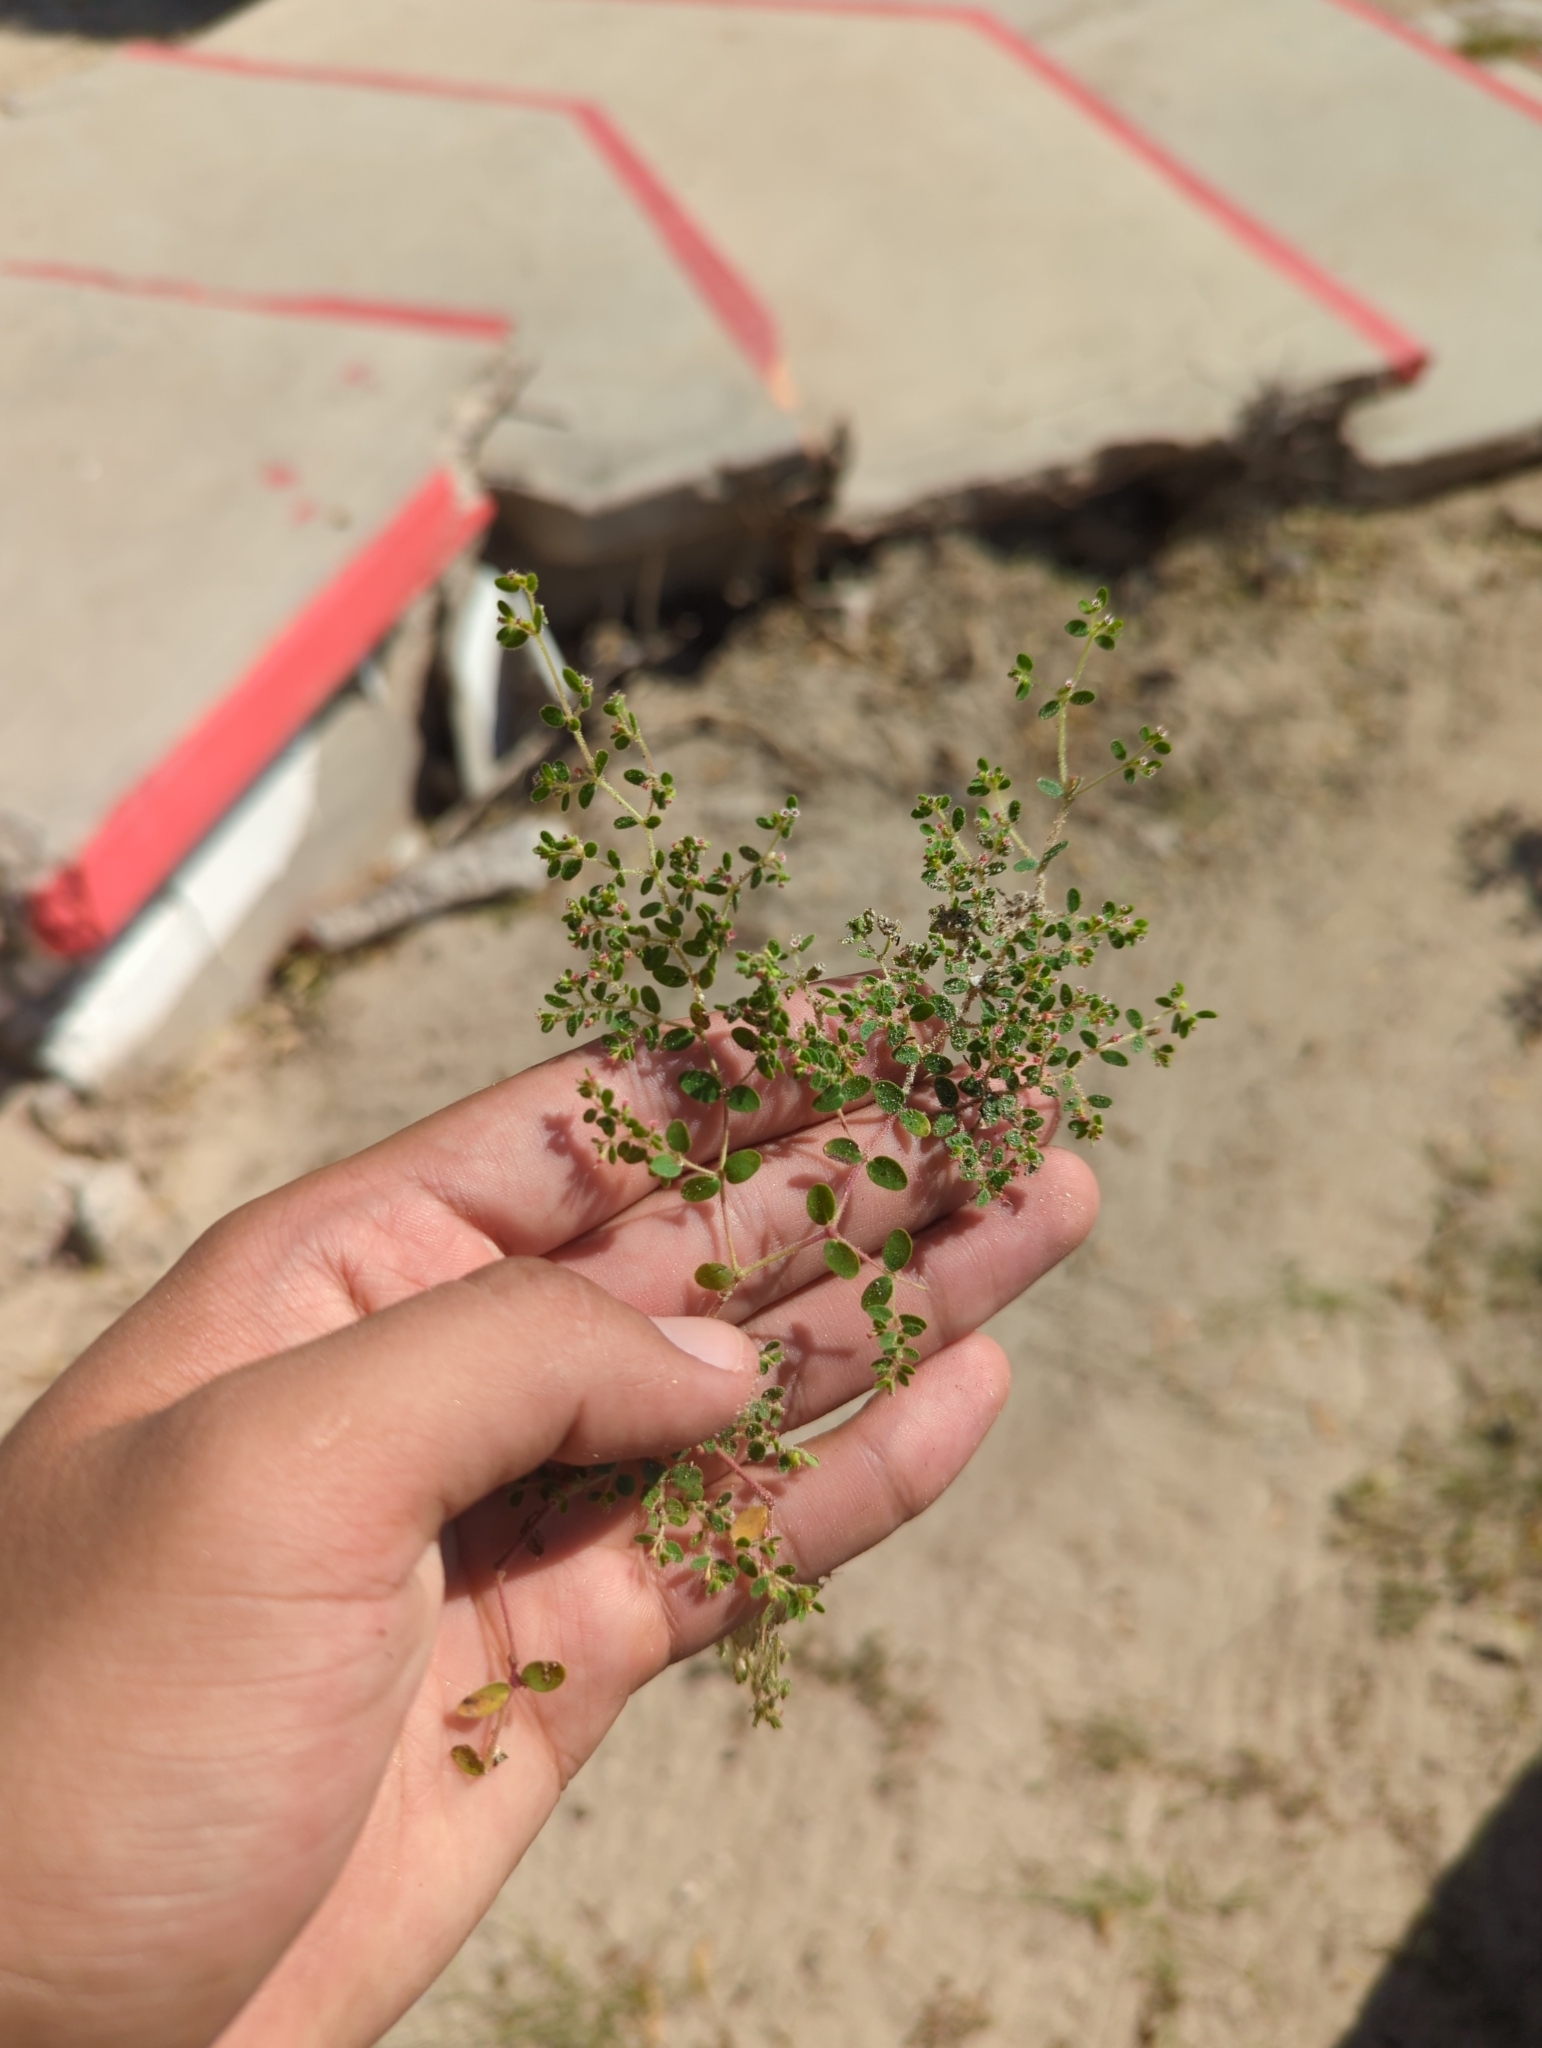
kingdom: Plantae
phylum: Tracheophyta
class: Magnoliopsida
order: Malpighiales
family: Euphorbiaceae
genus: Euphorbia
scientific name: Euphorbia setiloba
